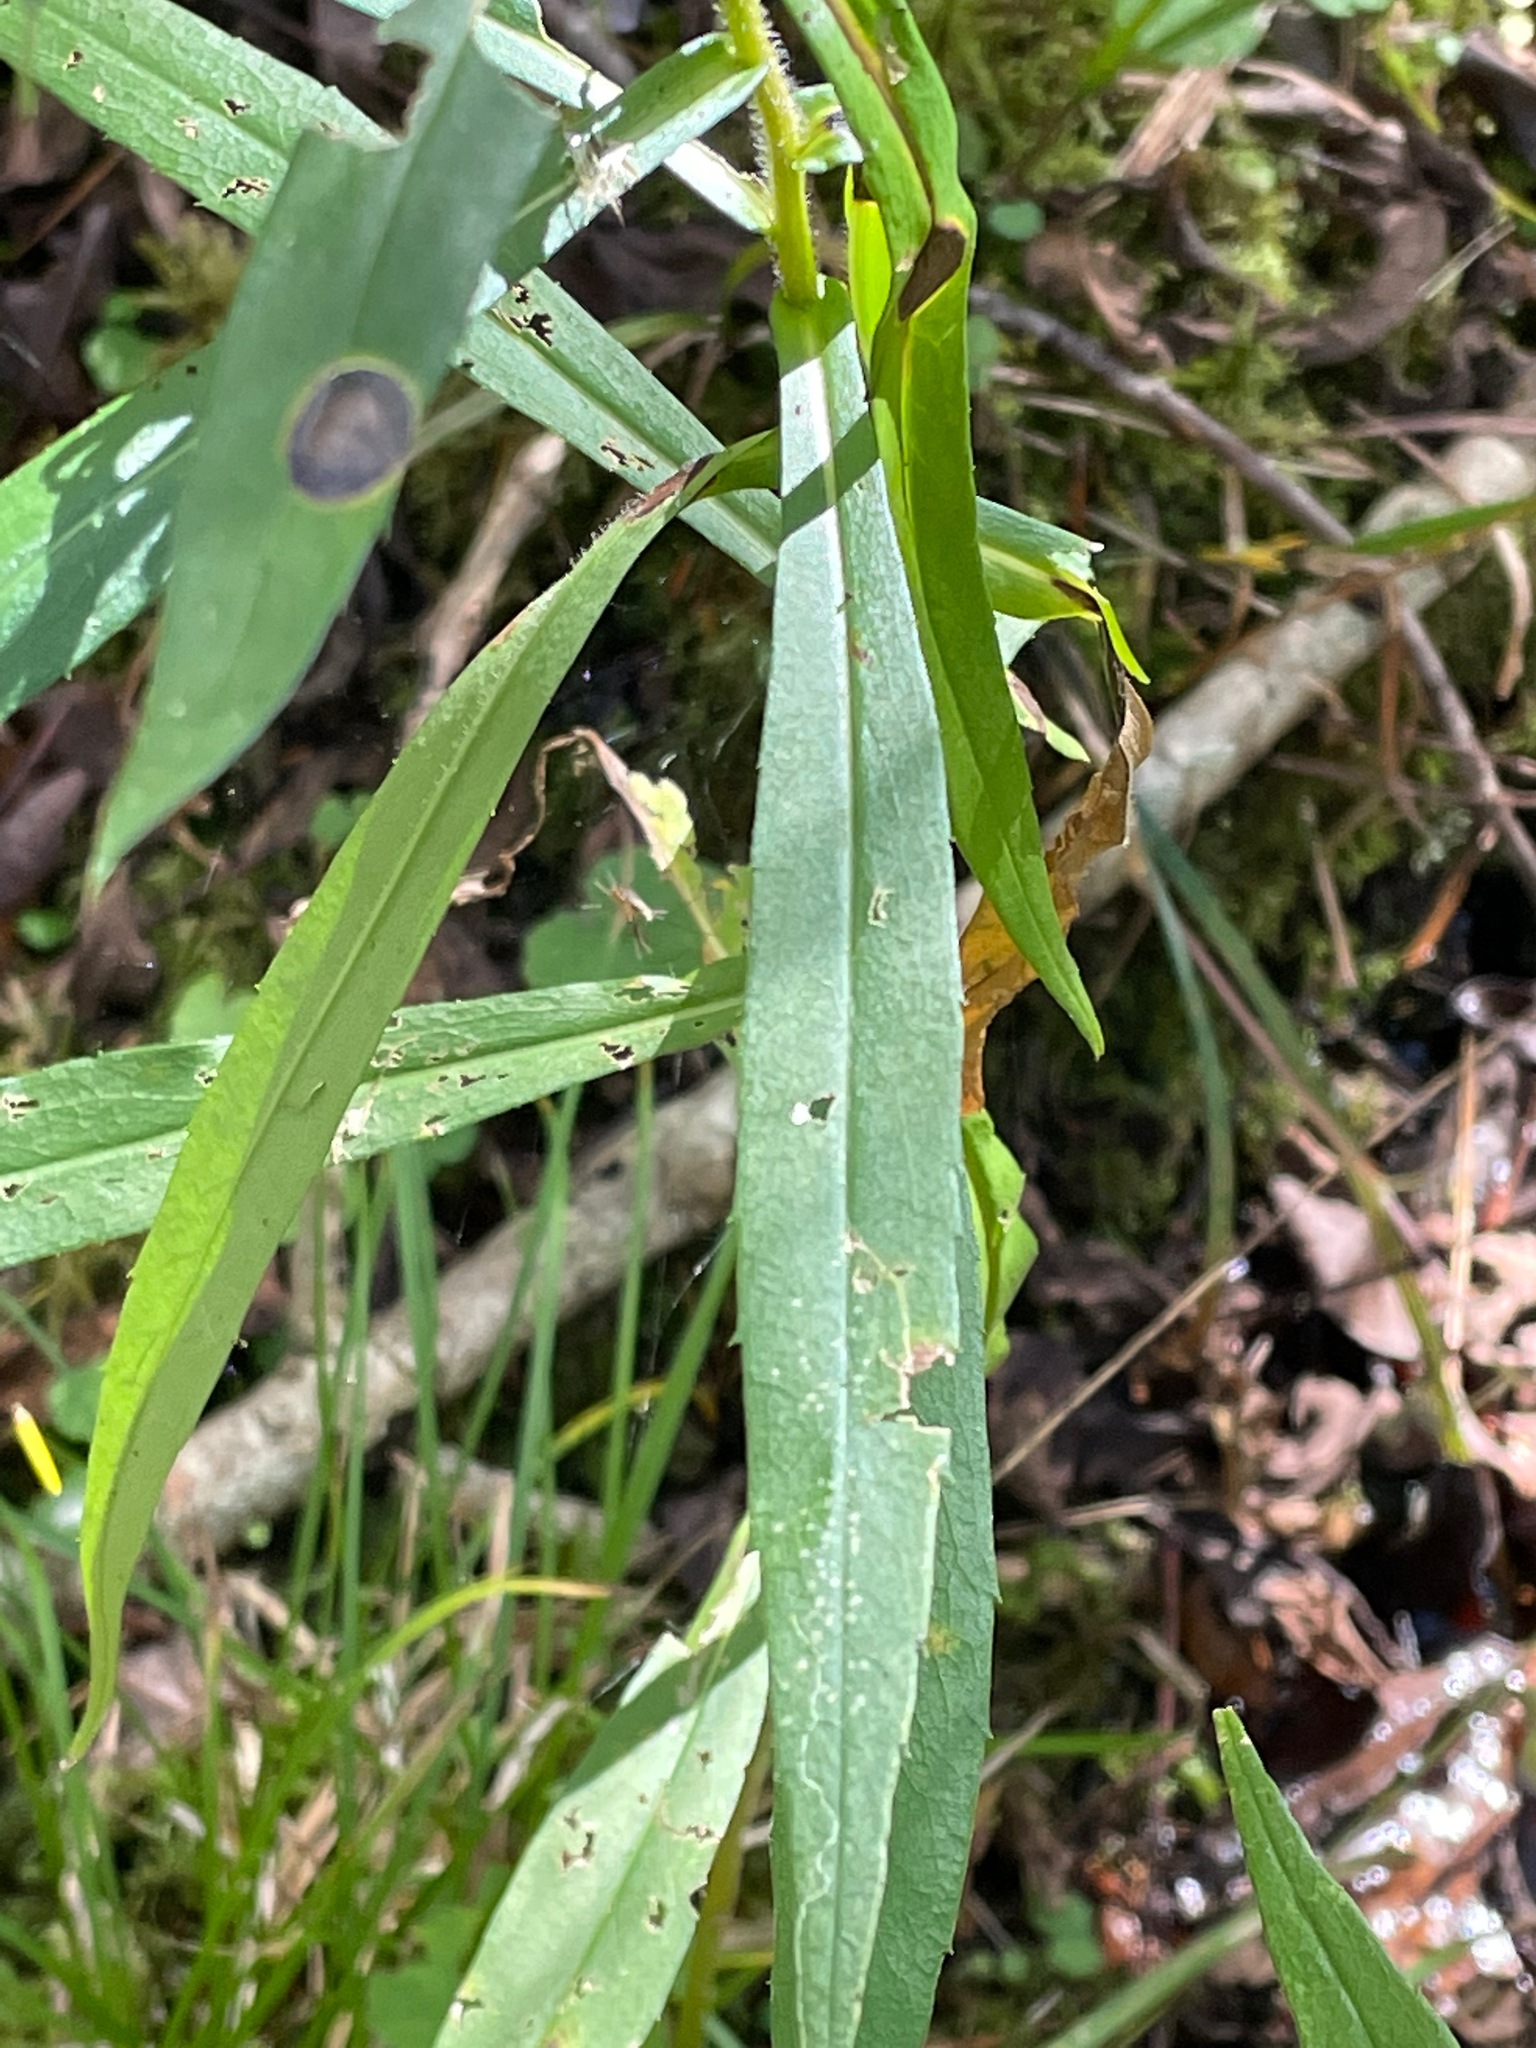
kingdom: Plantae
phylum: Tracheophyta
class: Magnoliopsida
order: Asterales
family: Asteraceae
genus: Symphyotrichum
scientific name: Symphyotrichum puniceum
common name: Bog aster
